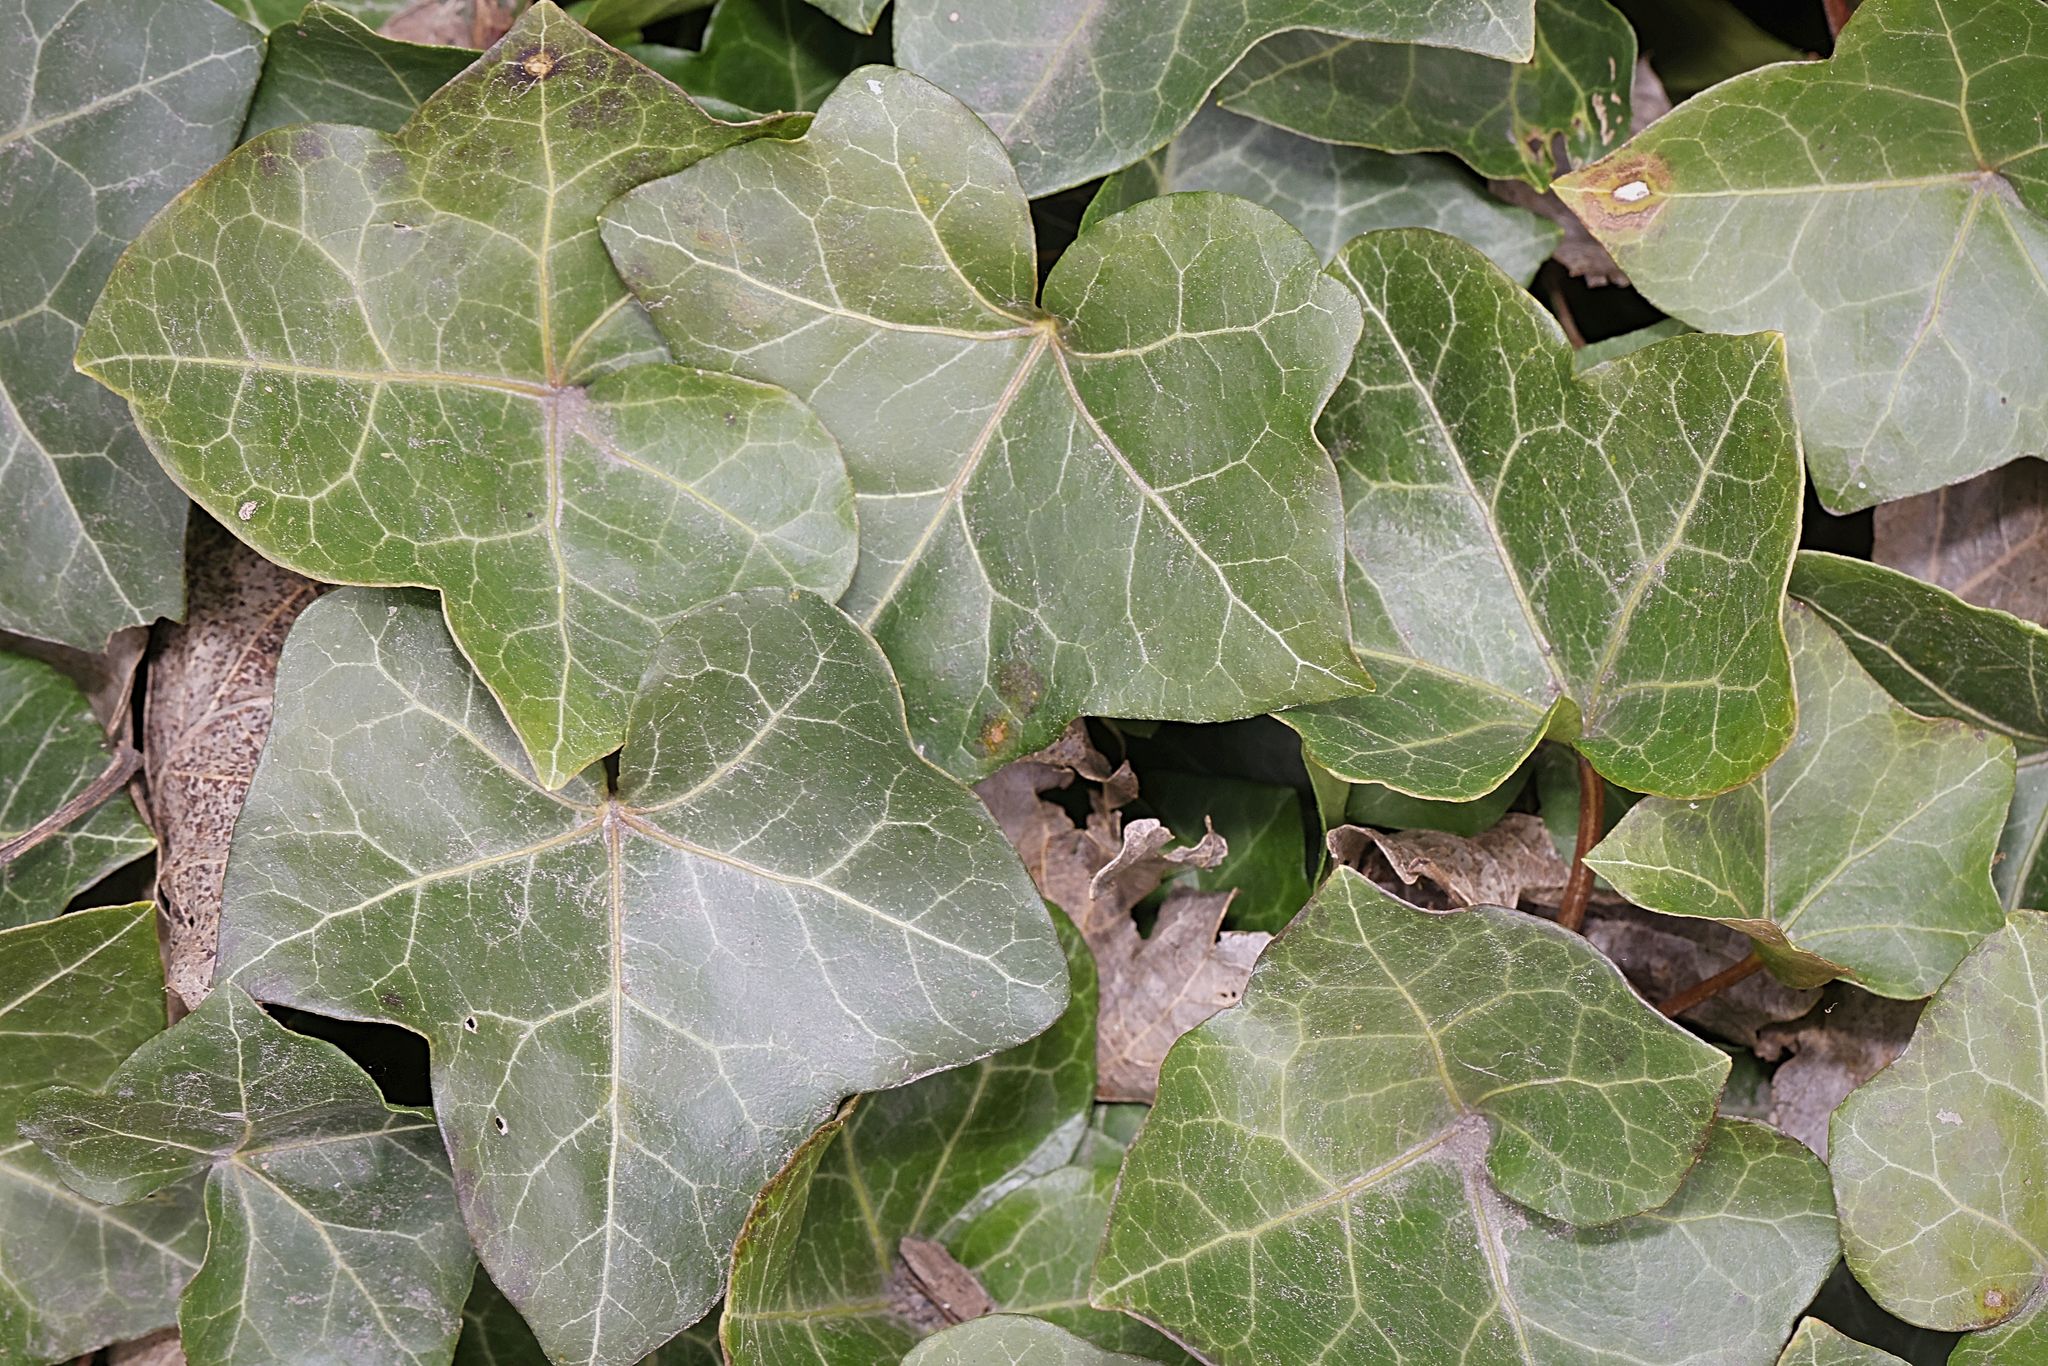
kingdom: Plantae
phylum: Tracheophyta
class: Magnoliopsida
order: Apiales
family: Araliaceae
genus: Hedera
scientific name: Hedera helix
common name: Ivy
